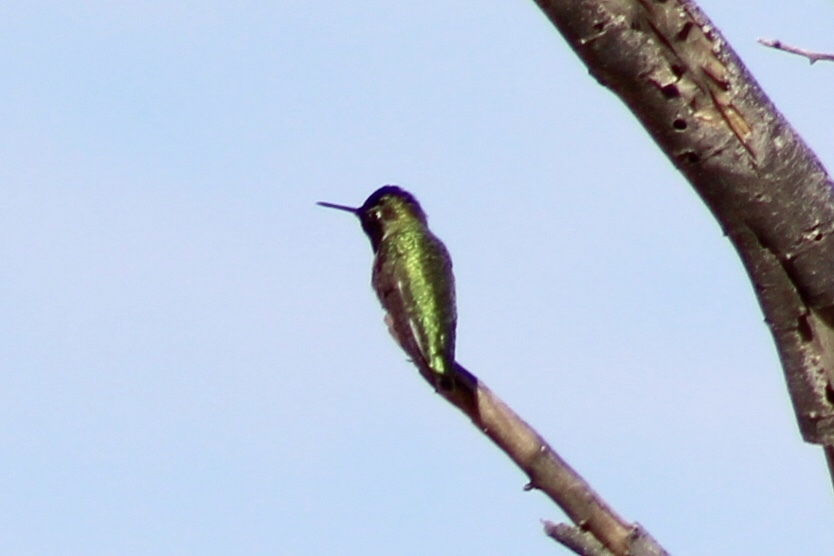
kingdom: Animalia
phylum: Chordata
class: Aves
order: Apodiformes
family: Trochilidae
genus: Calypte
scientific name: Calypte anna
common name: Anna's hummingbird
